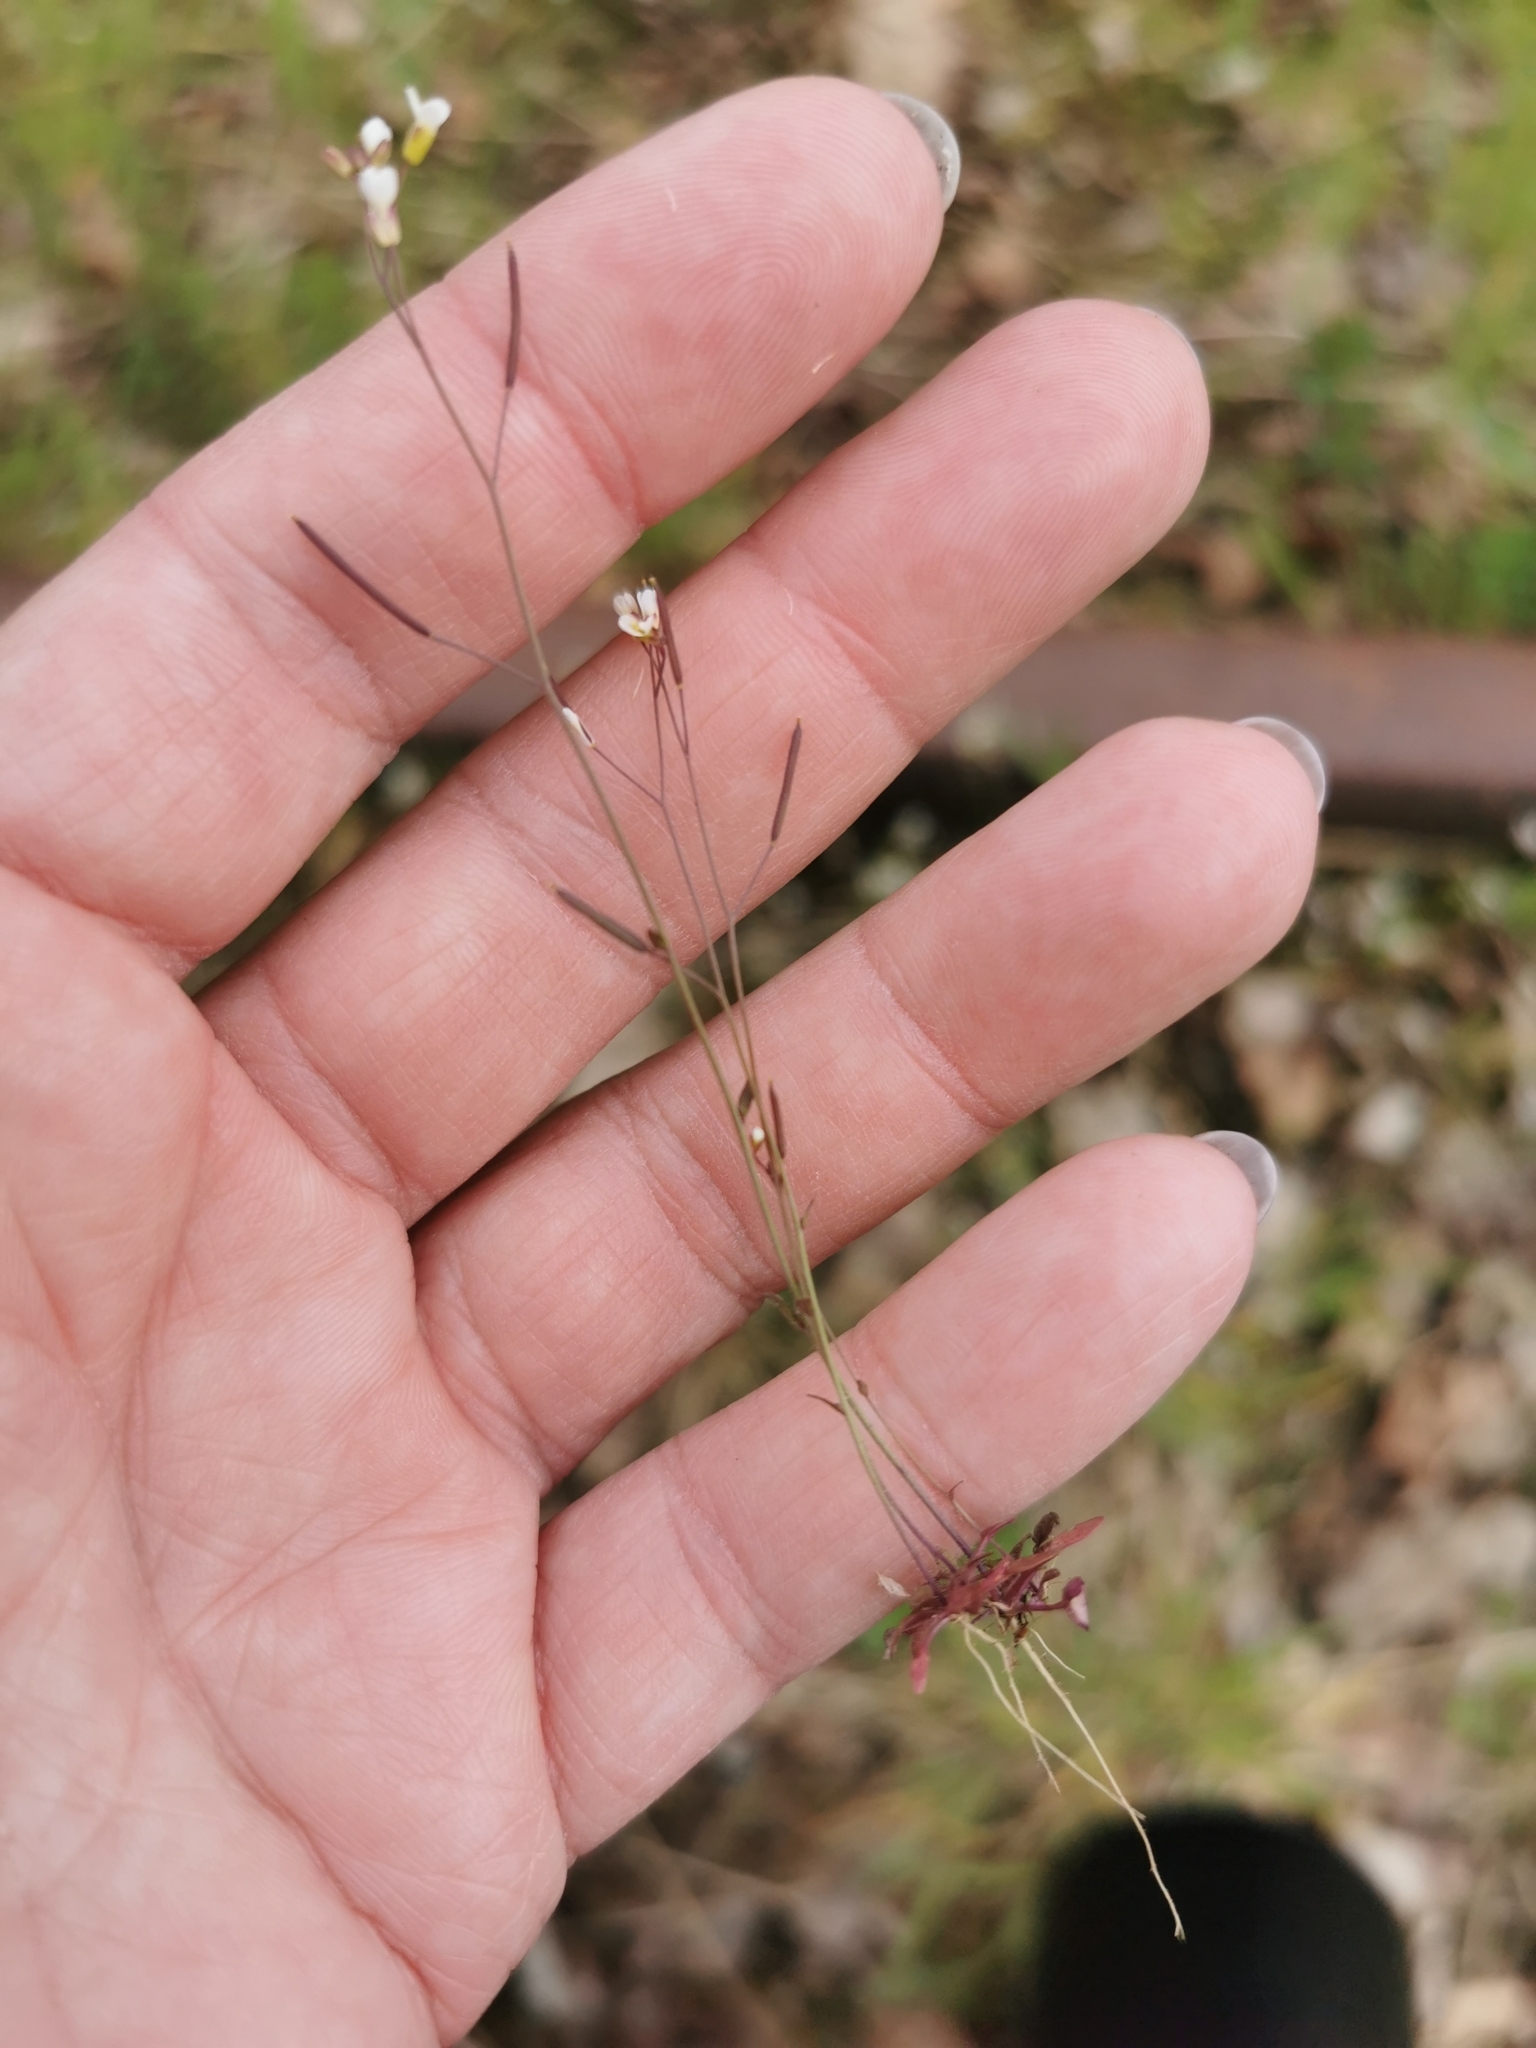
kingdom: Plantae
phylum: Tracheophyta
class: Magnoliopsida
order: Brassicales
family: Brassicaceae
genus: Arabidopsis
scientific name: Arabidopsis thaliana
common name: Thale cress
